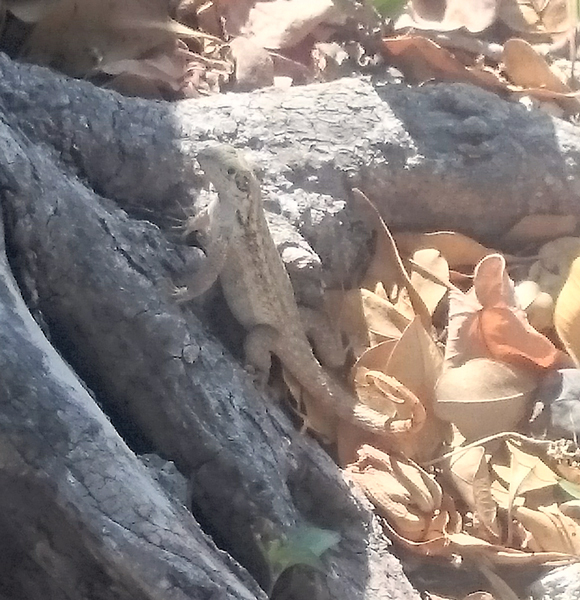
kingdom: Animalia
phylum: Chordata
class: Squamata
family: Leiocephalidae
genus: Leiocephalus
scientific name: Leiocephalus carinatus
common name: Northern curly-tailed lizard
